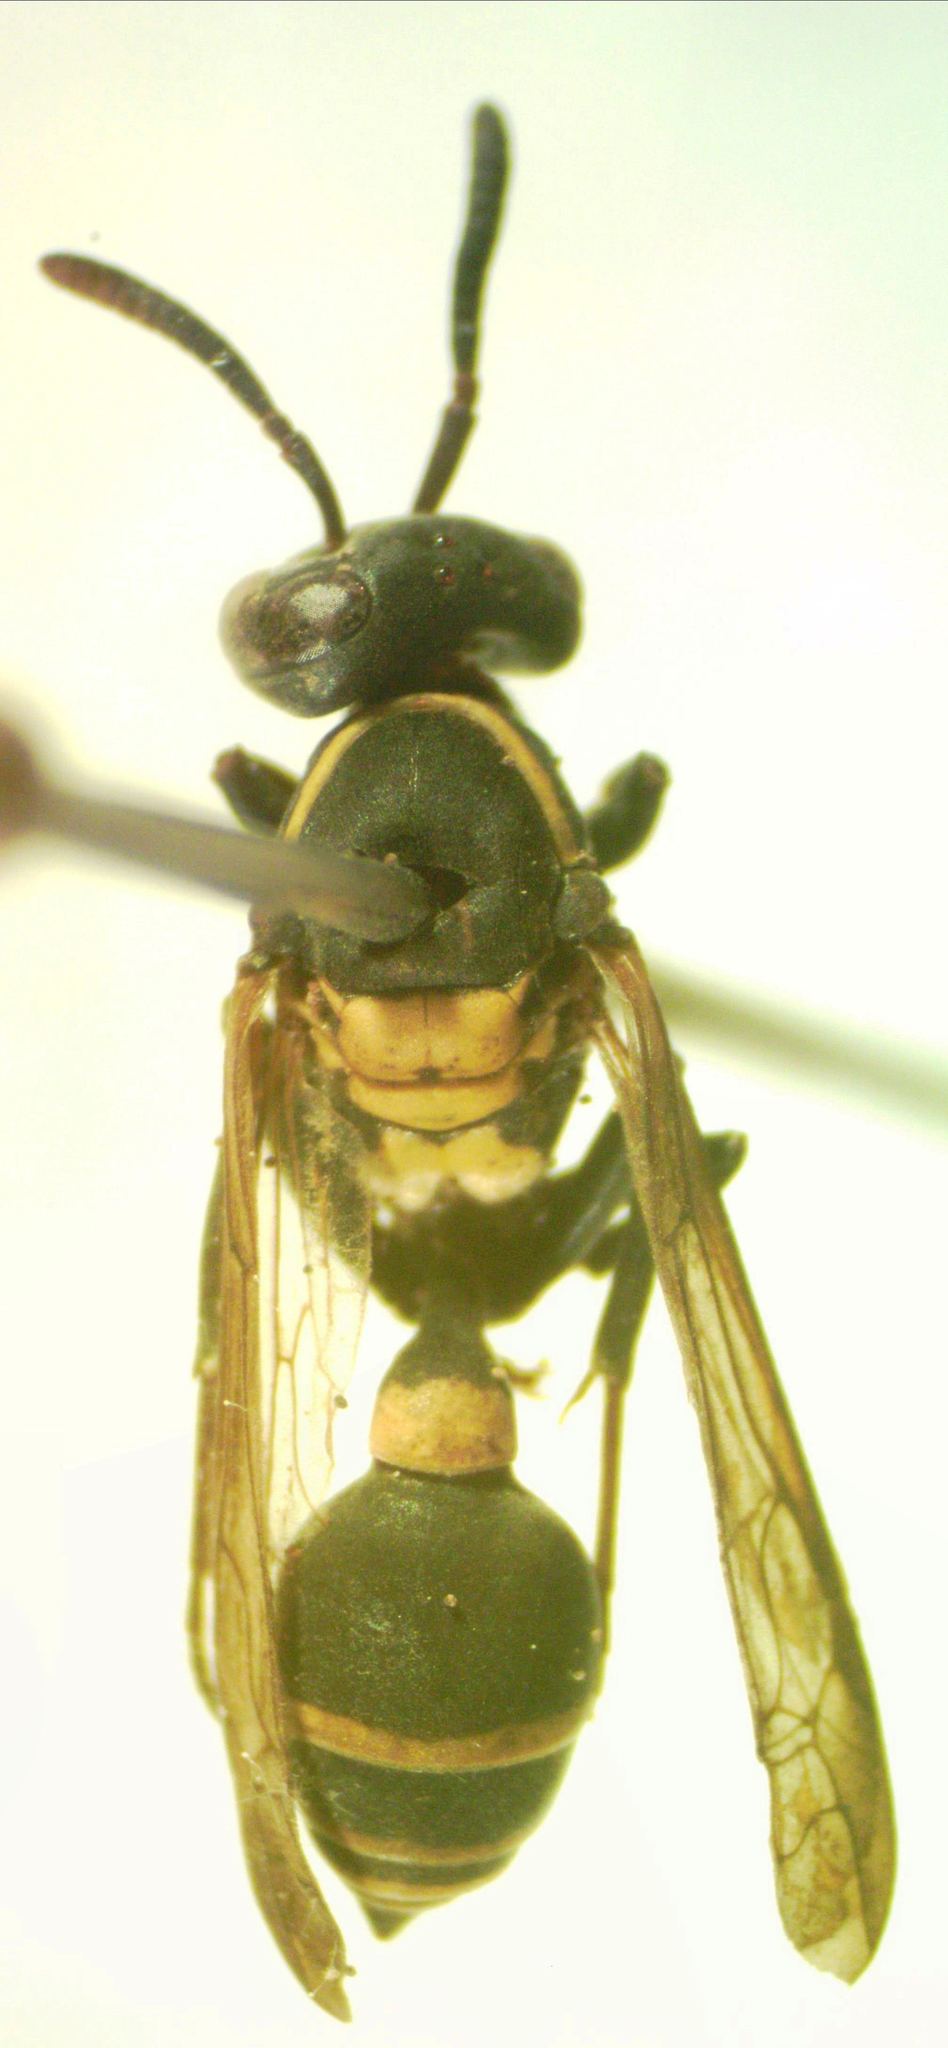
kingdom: Animalia
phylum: Arthropoda
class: Insecta
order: Hymenoptera
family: Eumenidae
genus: Polybia
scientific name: Polybia occidentalis
